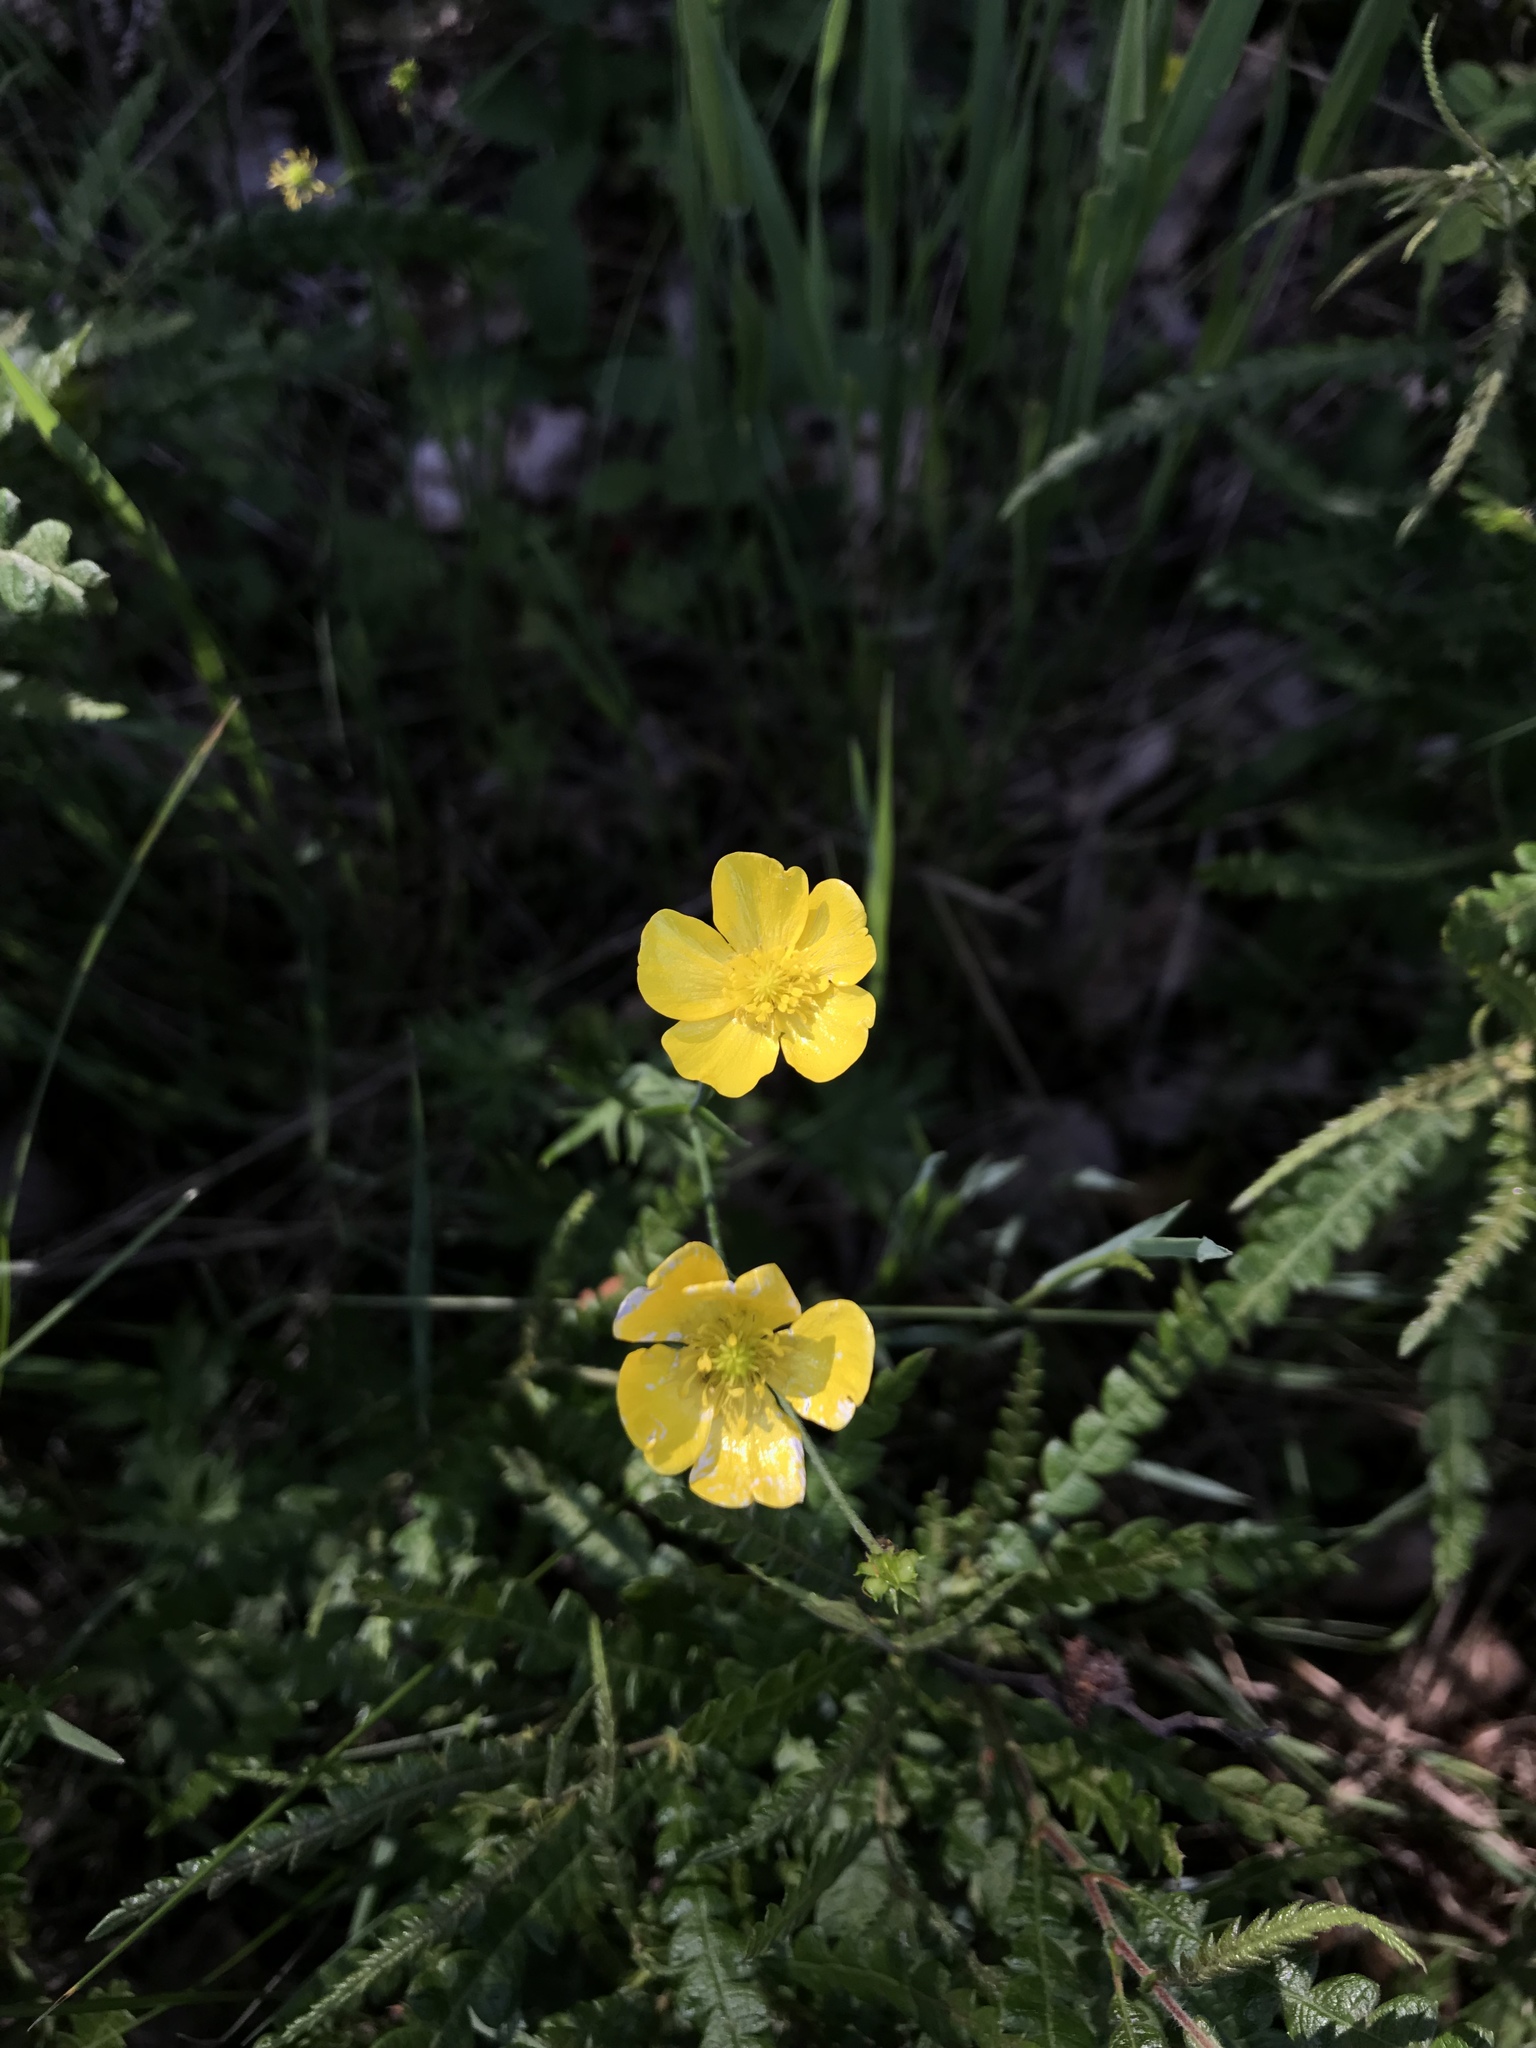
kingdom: Plantae
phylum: Tracheophyta
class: Magnoliopsida
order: Ranunculales
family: Ranunculaceae
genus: Ranunculus
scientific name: Ranunculus acris
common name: Meadow buttercup
